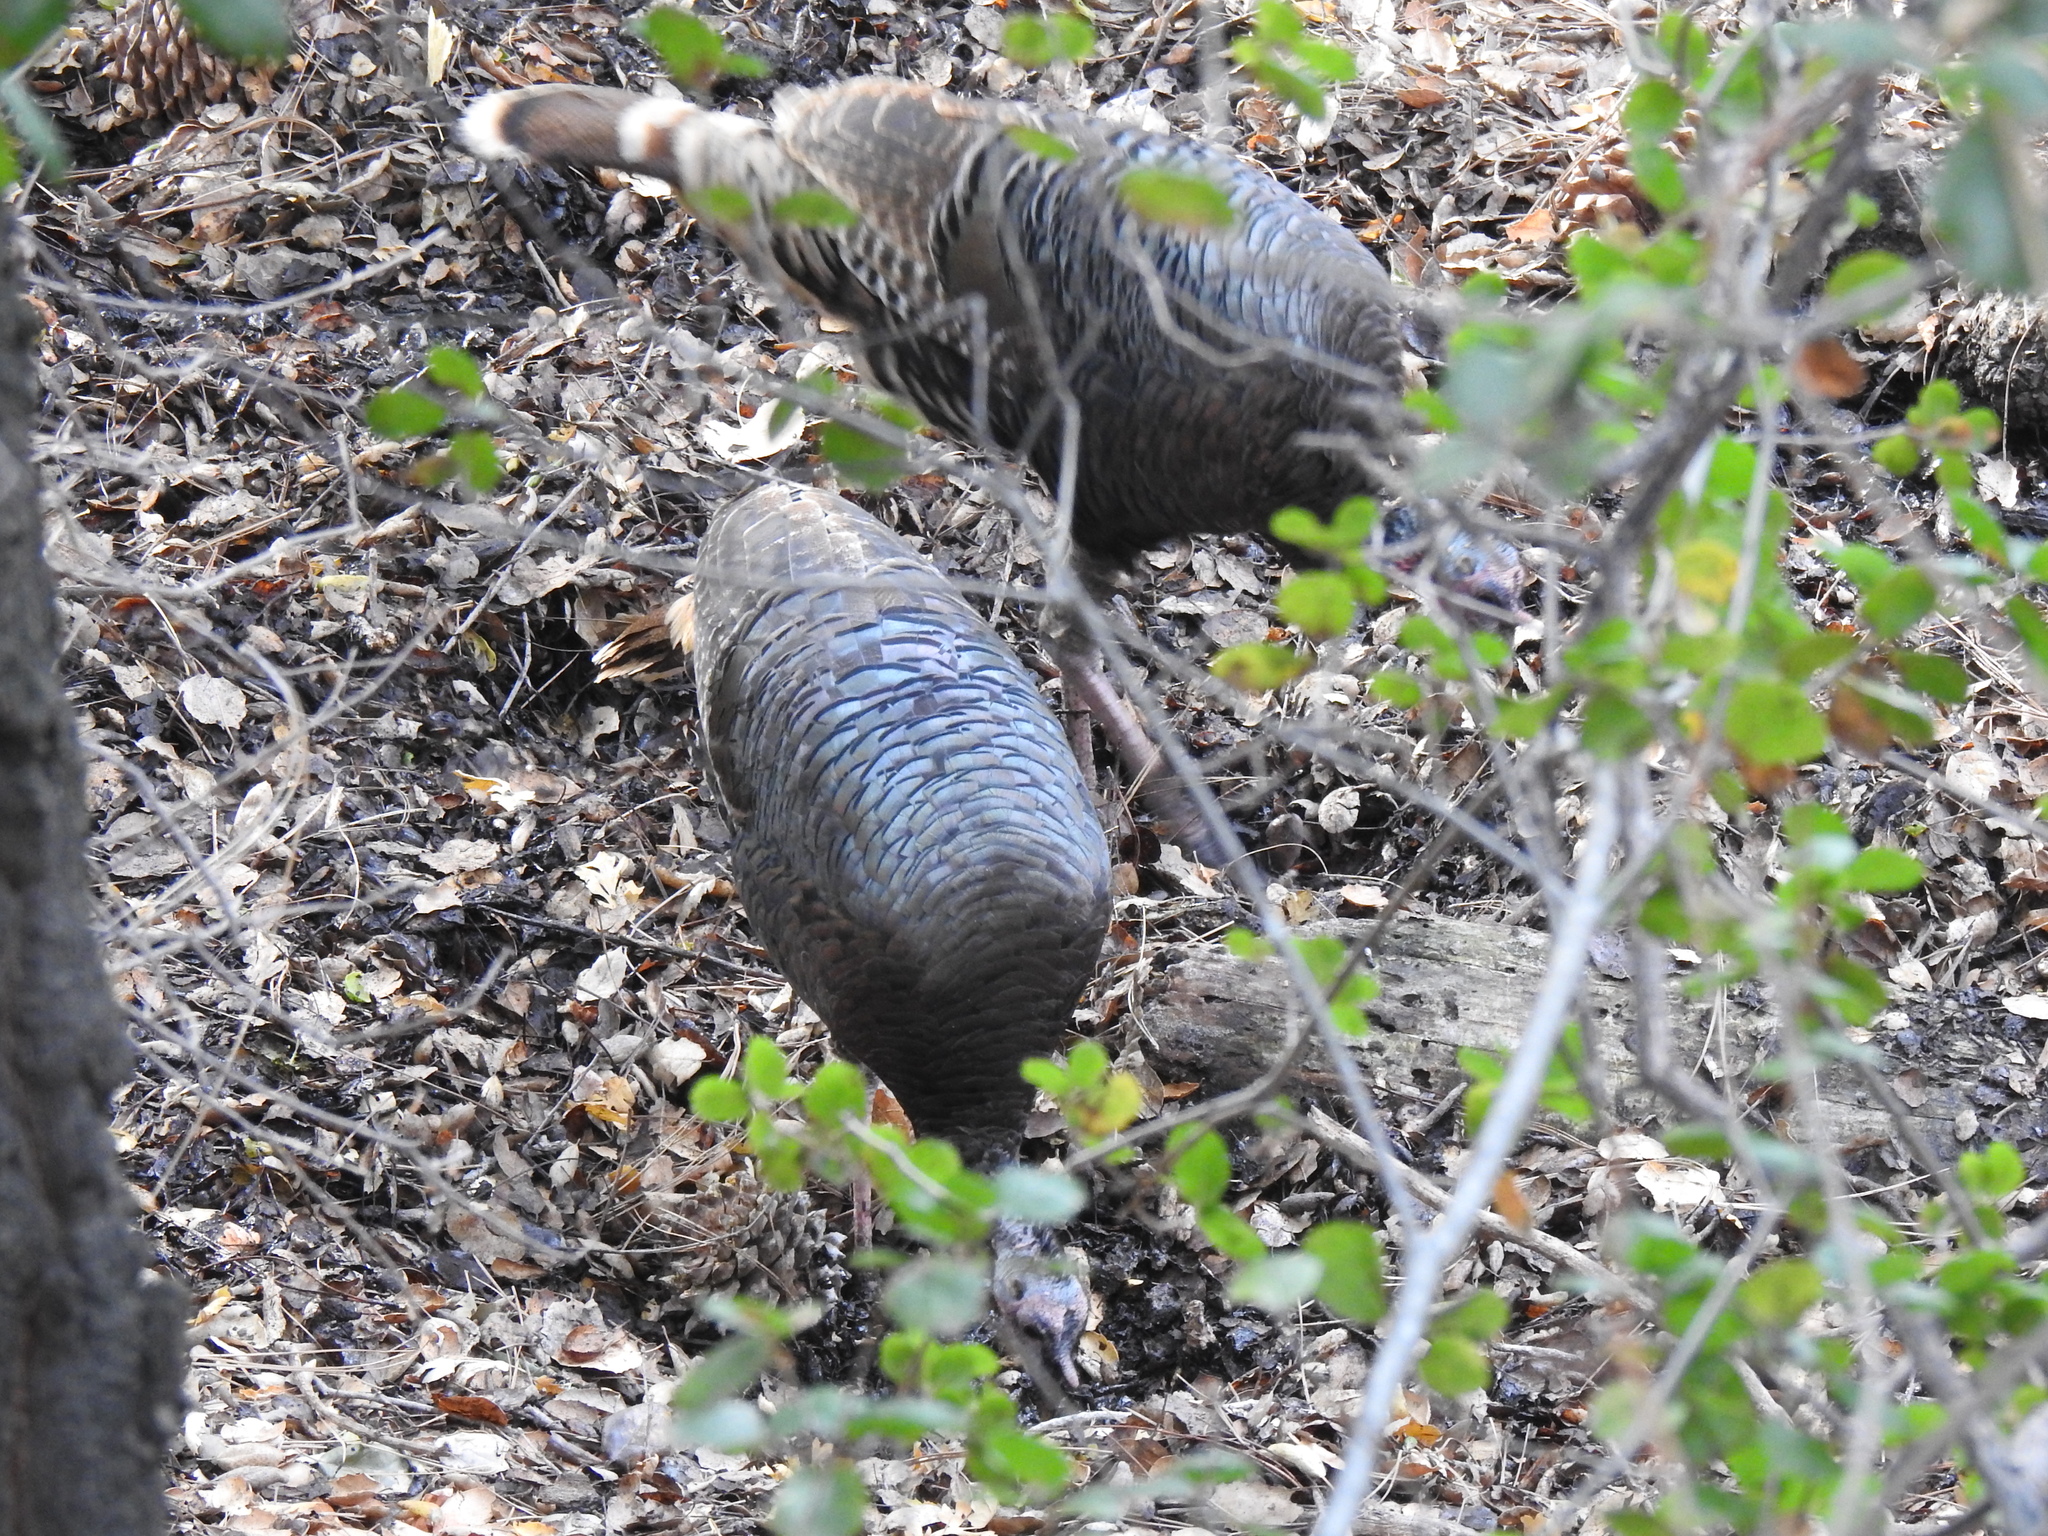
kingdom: Animalia
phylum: Chordata
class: Aves
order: Galliformes
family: Phasianidae
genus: Meleagris
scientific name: Meleagris gallopavo
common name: Wild turkey
